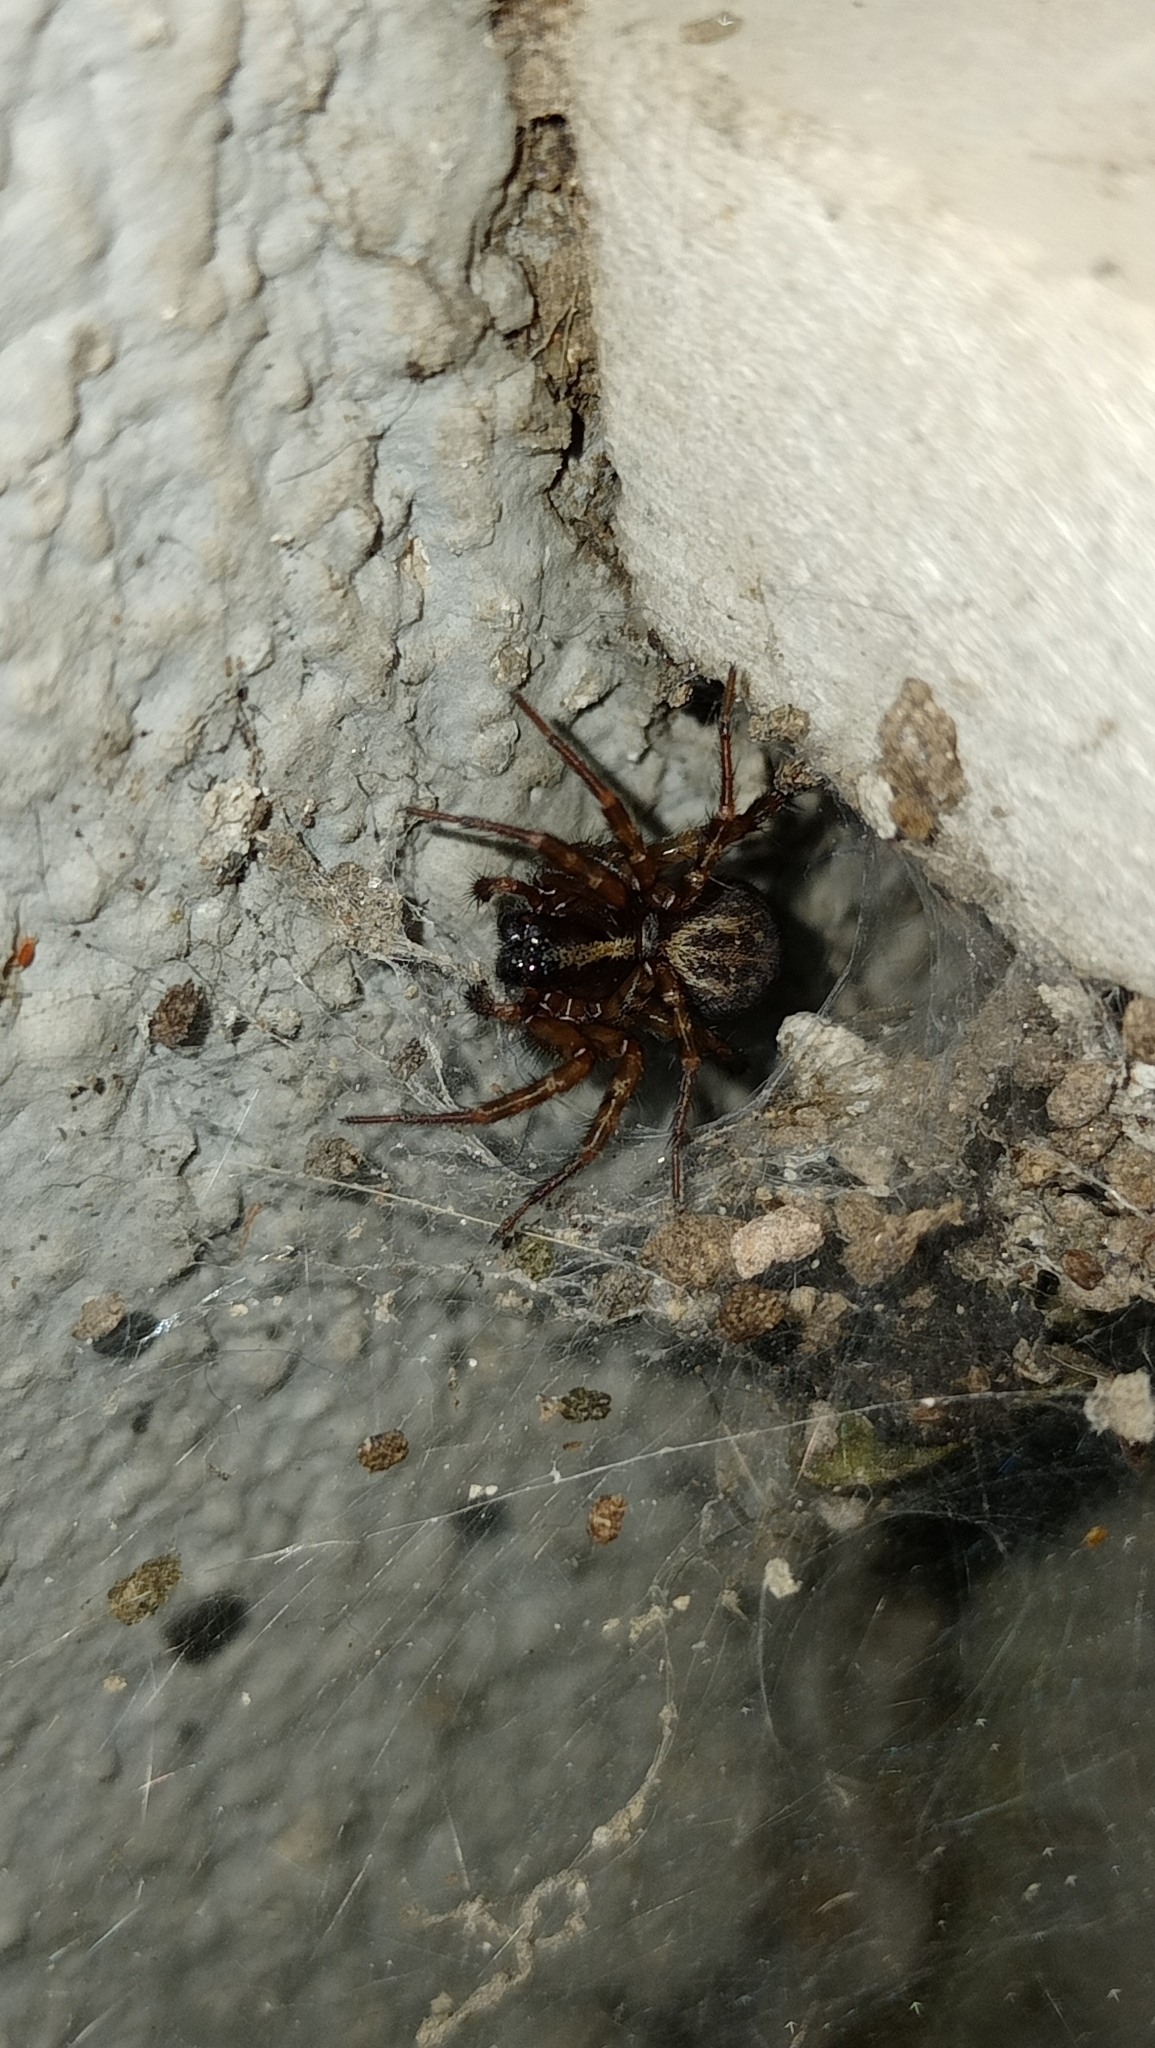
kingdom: Animalia
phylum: Arthropoda
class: Arachnida
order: Araneae
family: Agelenidae
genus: Maimuna
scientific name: Maimuna vestita
